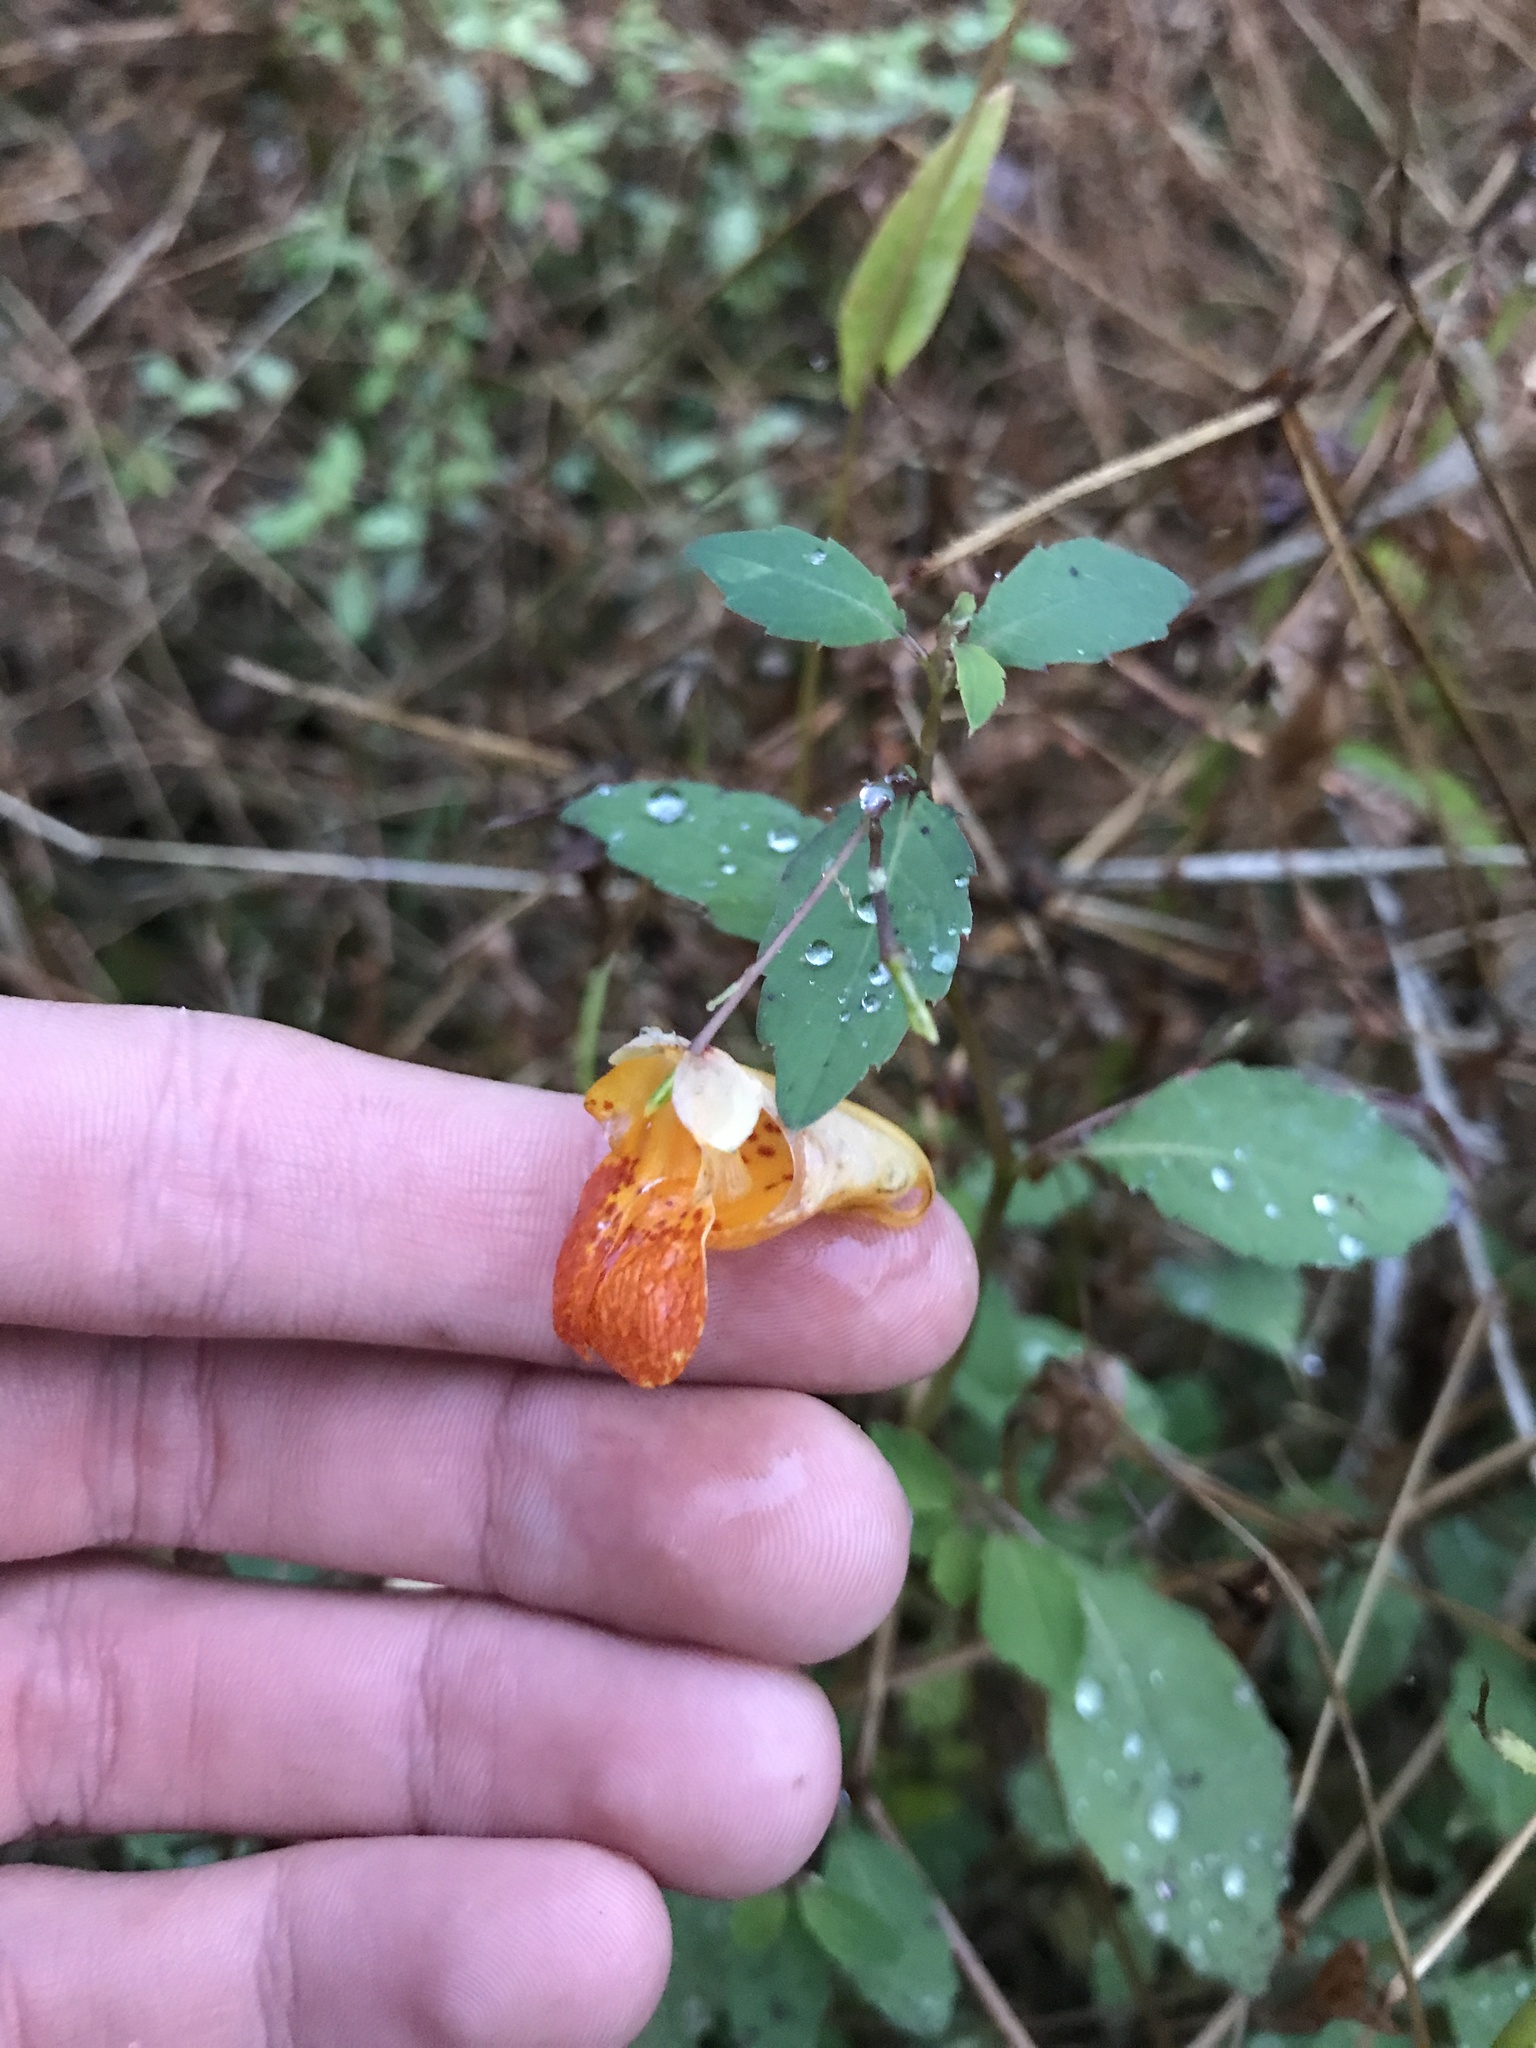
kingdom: Plantae
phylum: Tracheophyta
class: Magnoliopsida
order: Ericales
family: Balsaminaceae
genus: Impatiens
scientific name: Impatiens capensis
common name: Orange balsam
